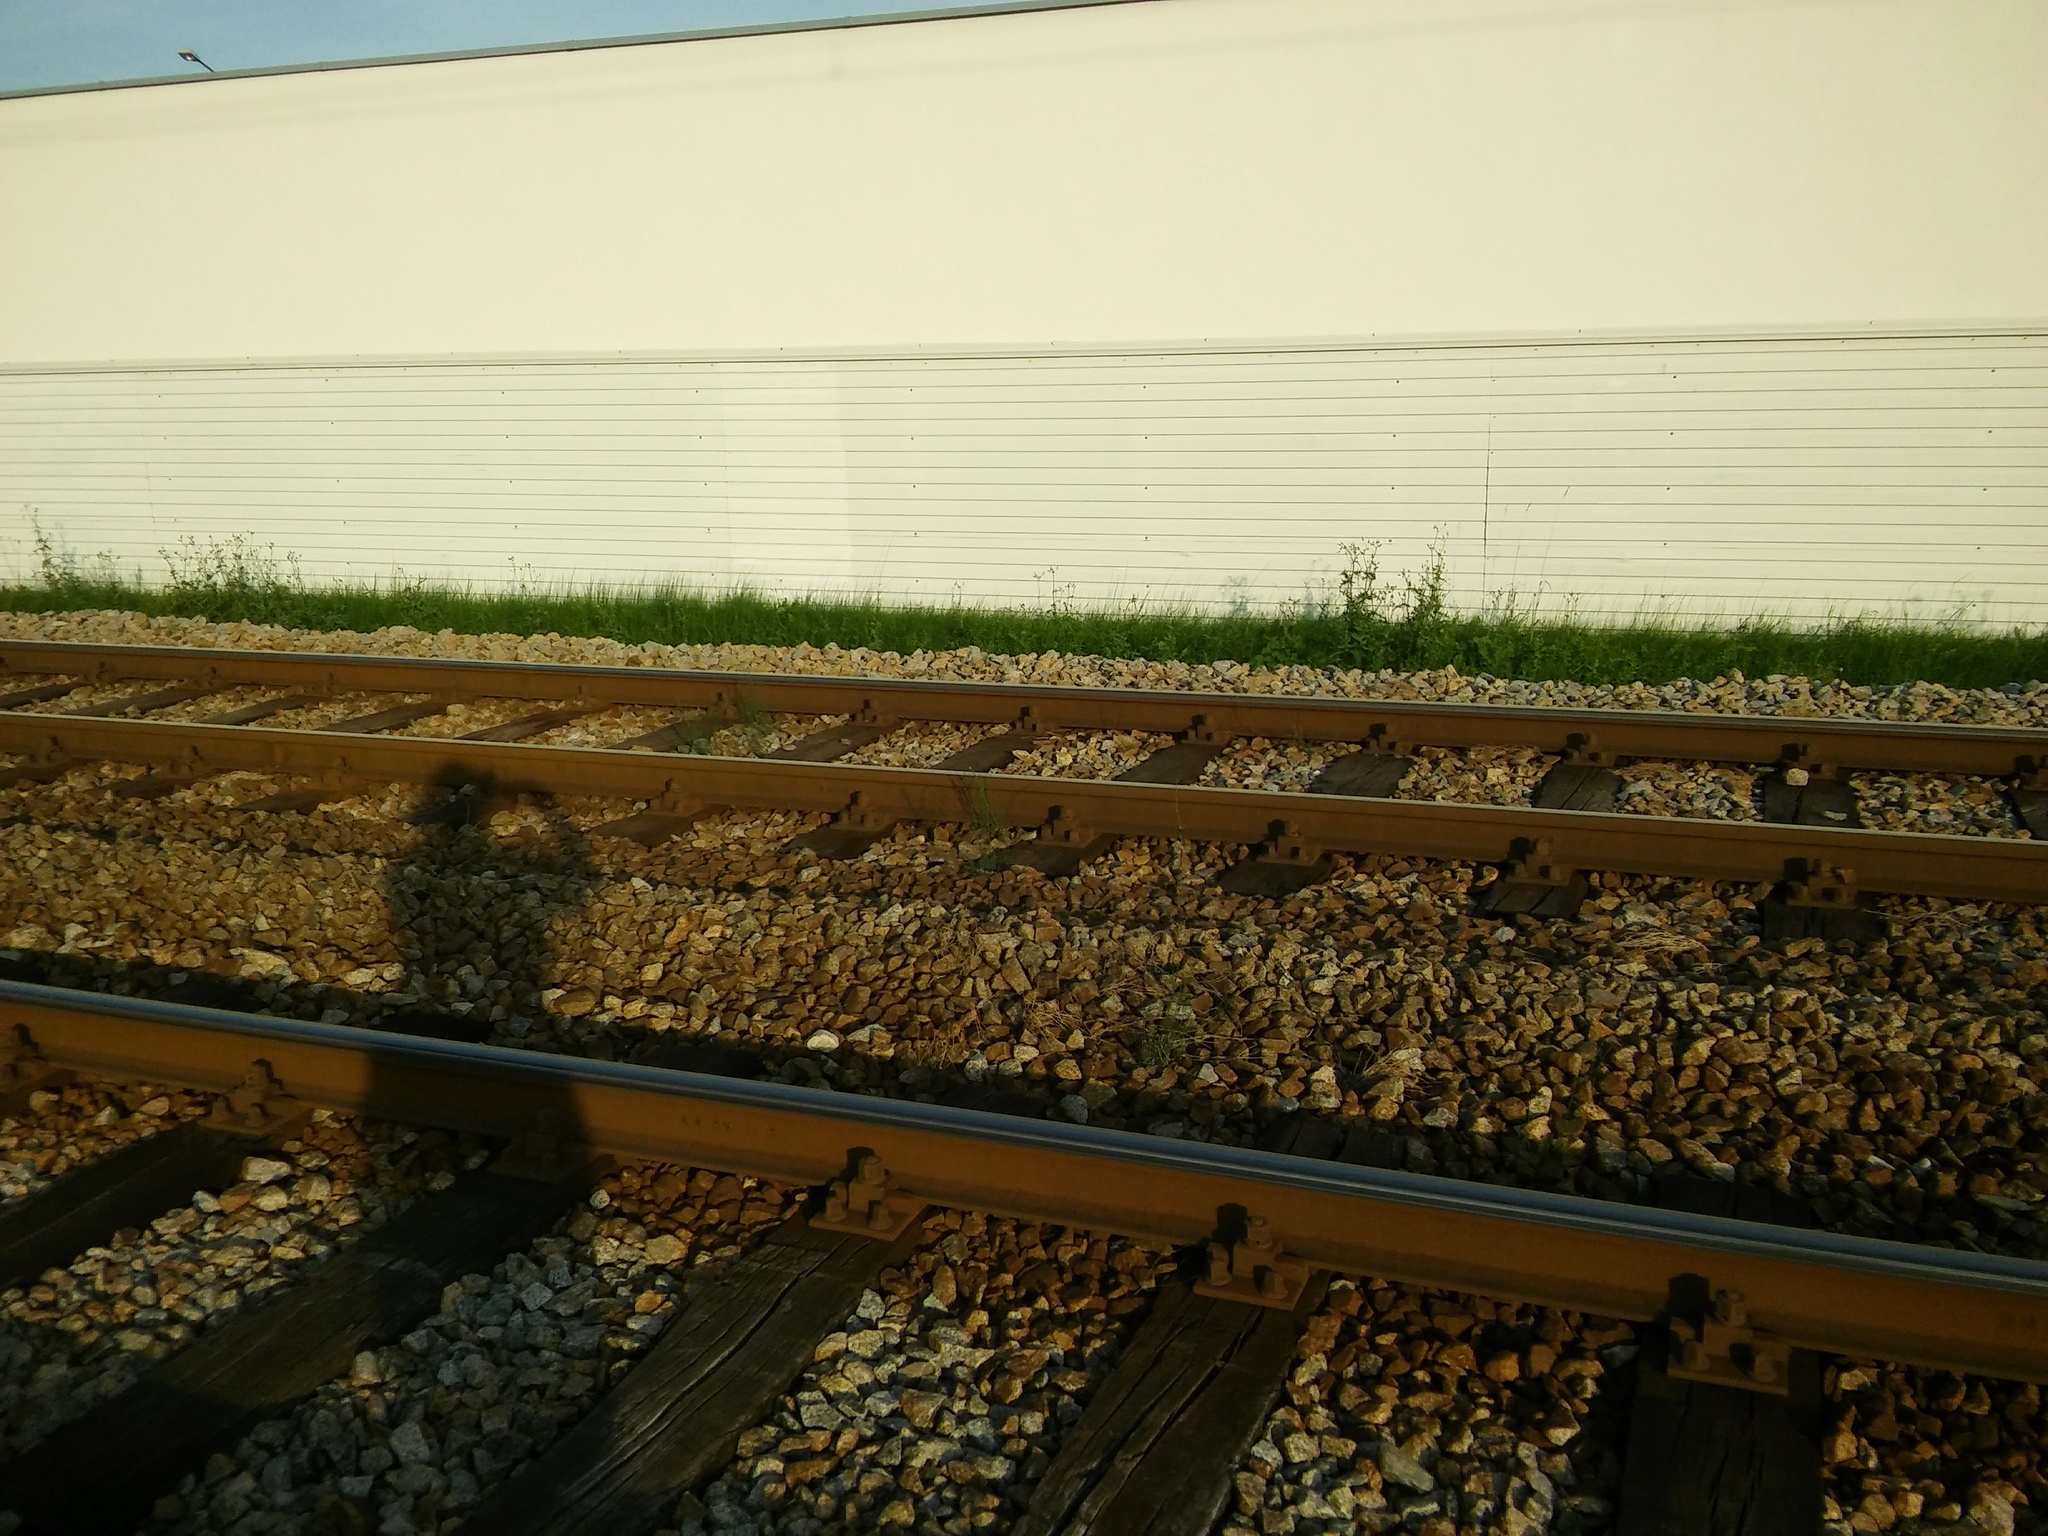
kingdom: Plantae
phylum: Tracheophyta
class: Polypodiopsida
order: Equisetales
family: Equisetaceae
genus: Equisetum
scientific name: Equisetum ramosissimum
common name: Branched horsetail
